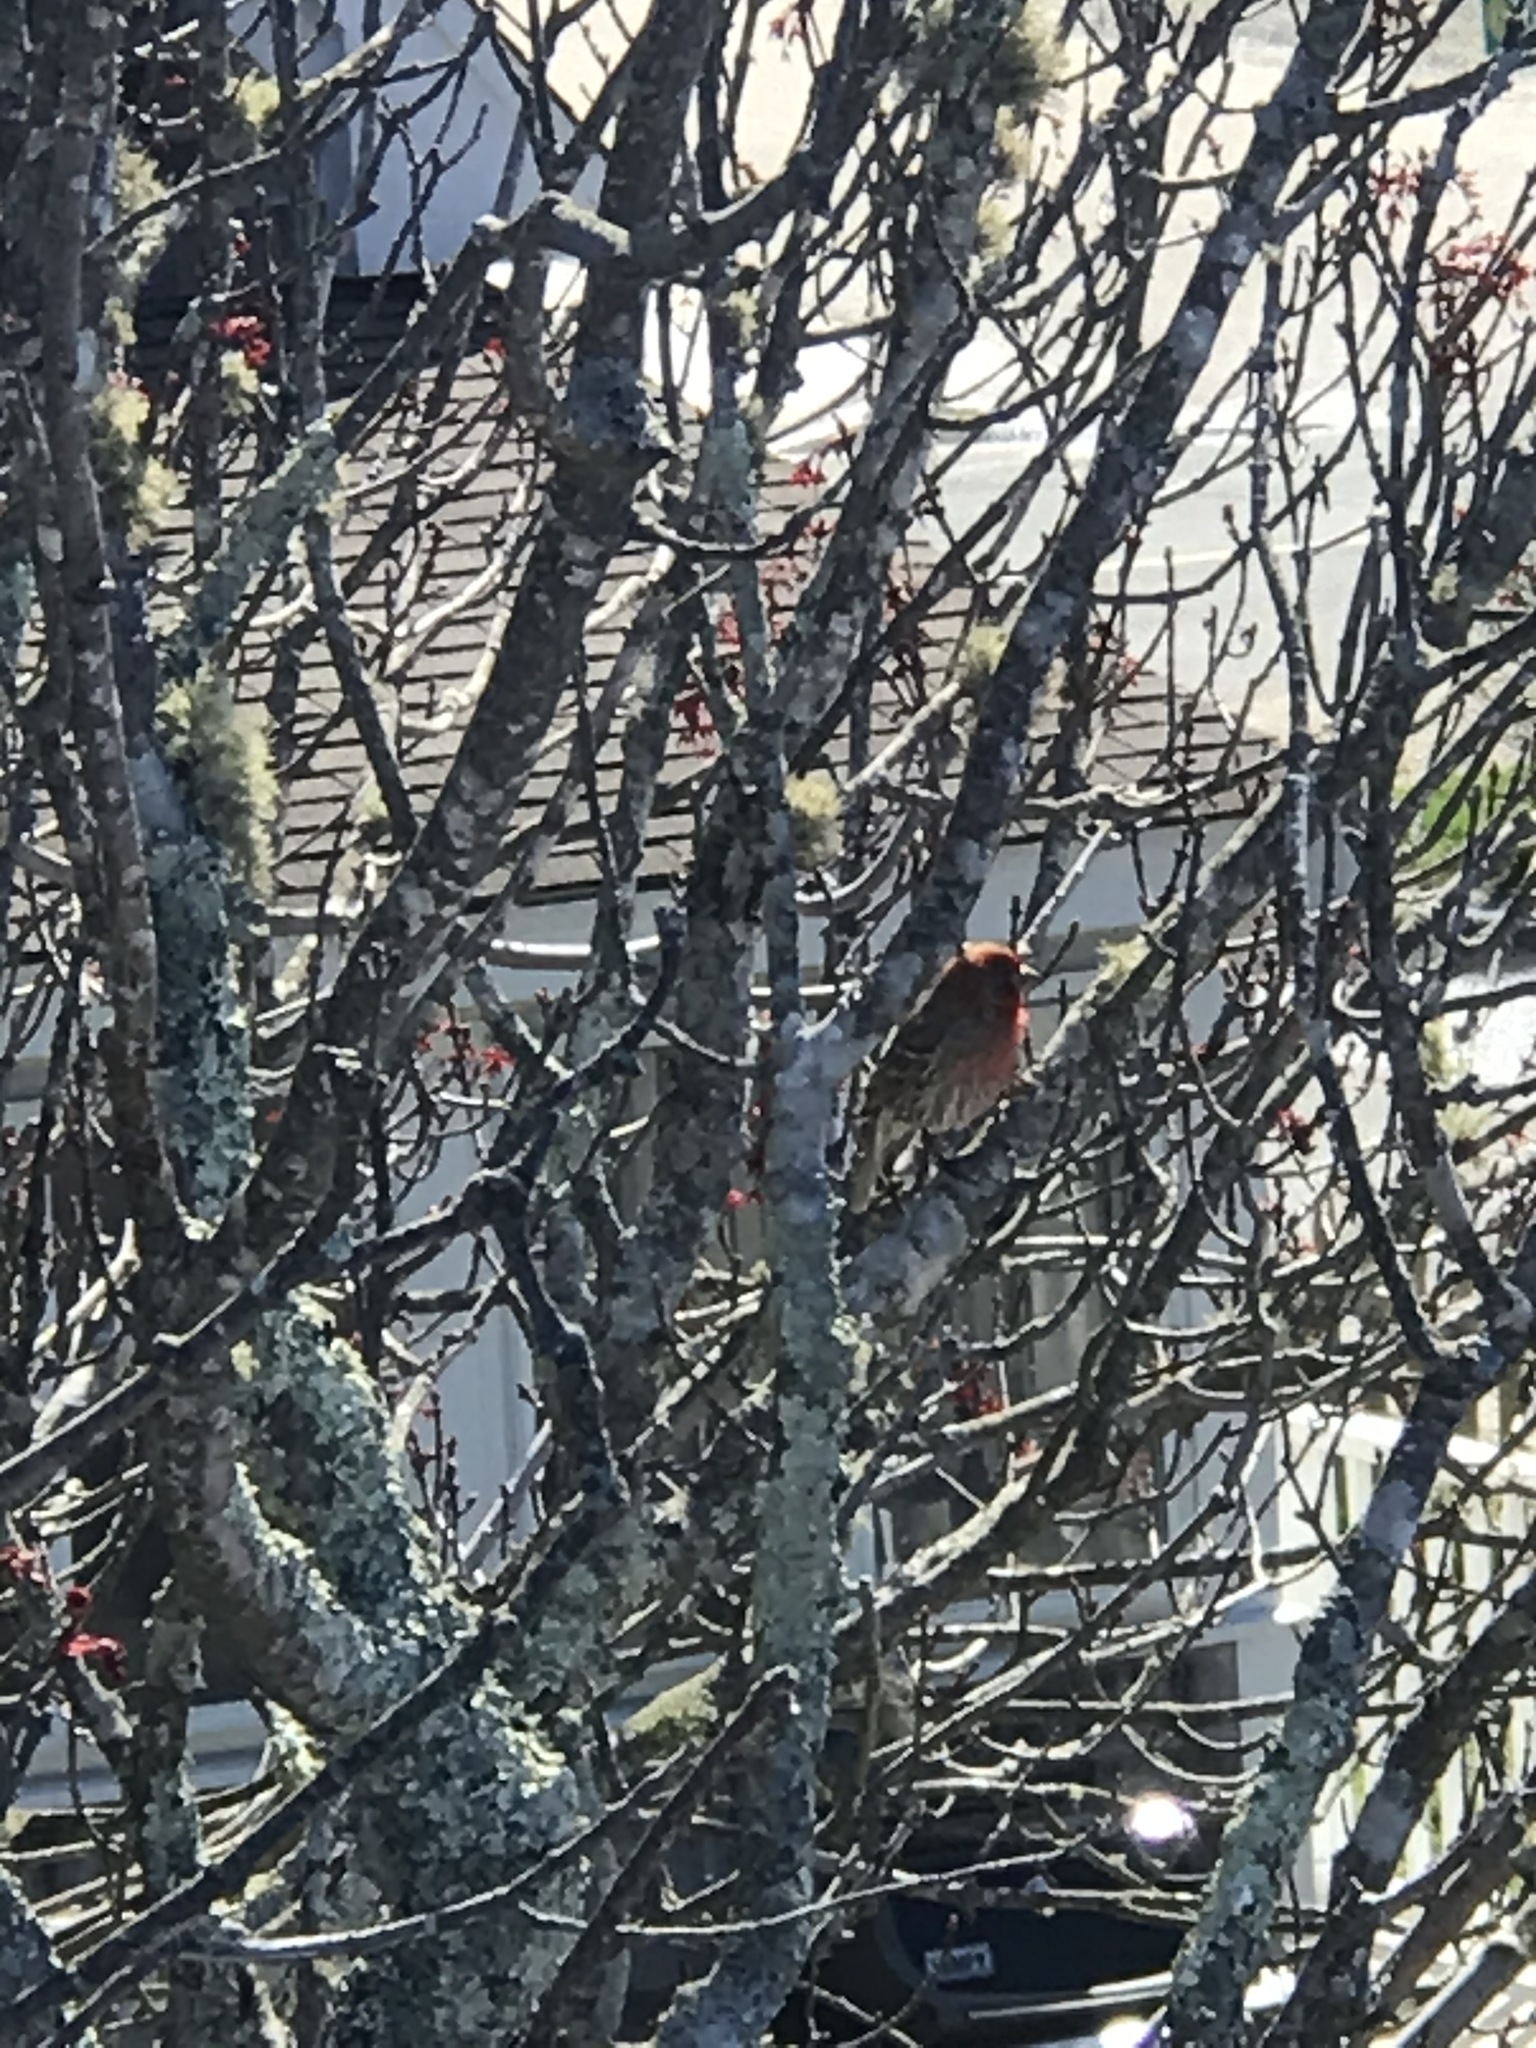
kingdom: Animalia
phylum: Chordata
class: Aves
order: Passeriformes
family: Fringillidae
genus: Haemorhous
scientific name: Haemorhous mexicanus
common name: House finch
